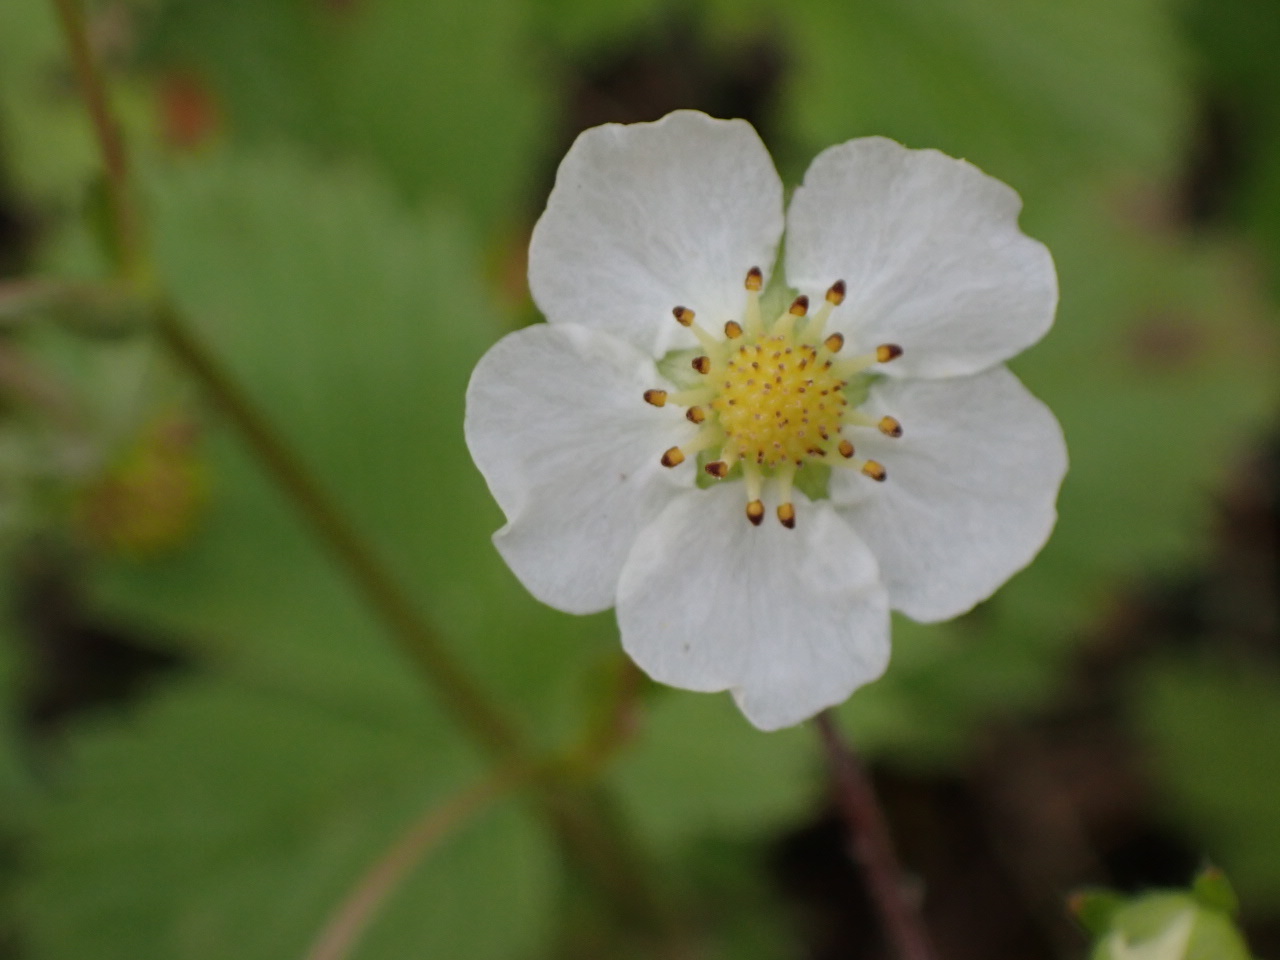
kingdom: Plantae
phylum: Tracheophyta
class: Magnoliopsida
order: Rosales
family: Rosaceae
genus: Fragaria
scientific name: Fragaria vesca
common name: Wild strawberry
